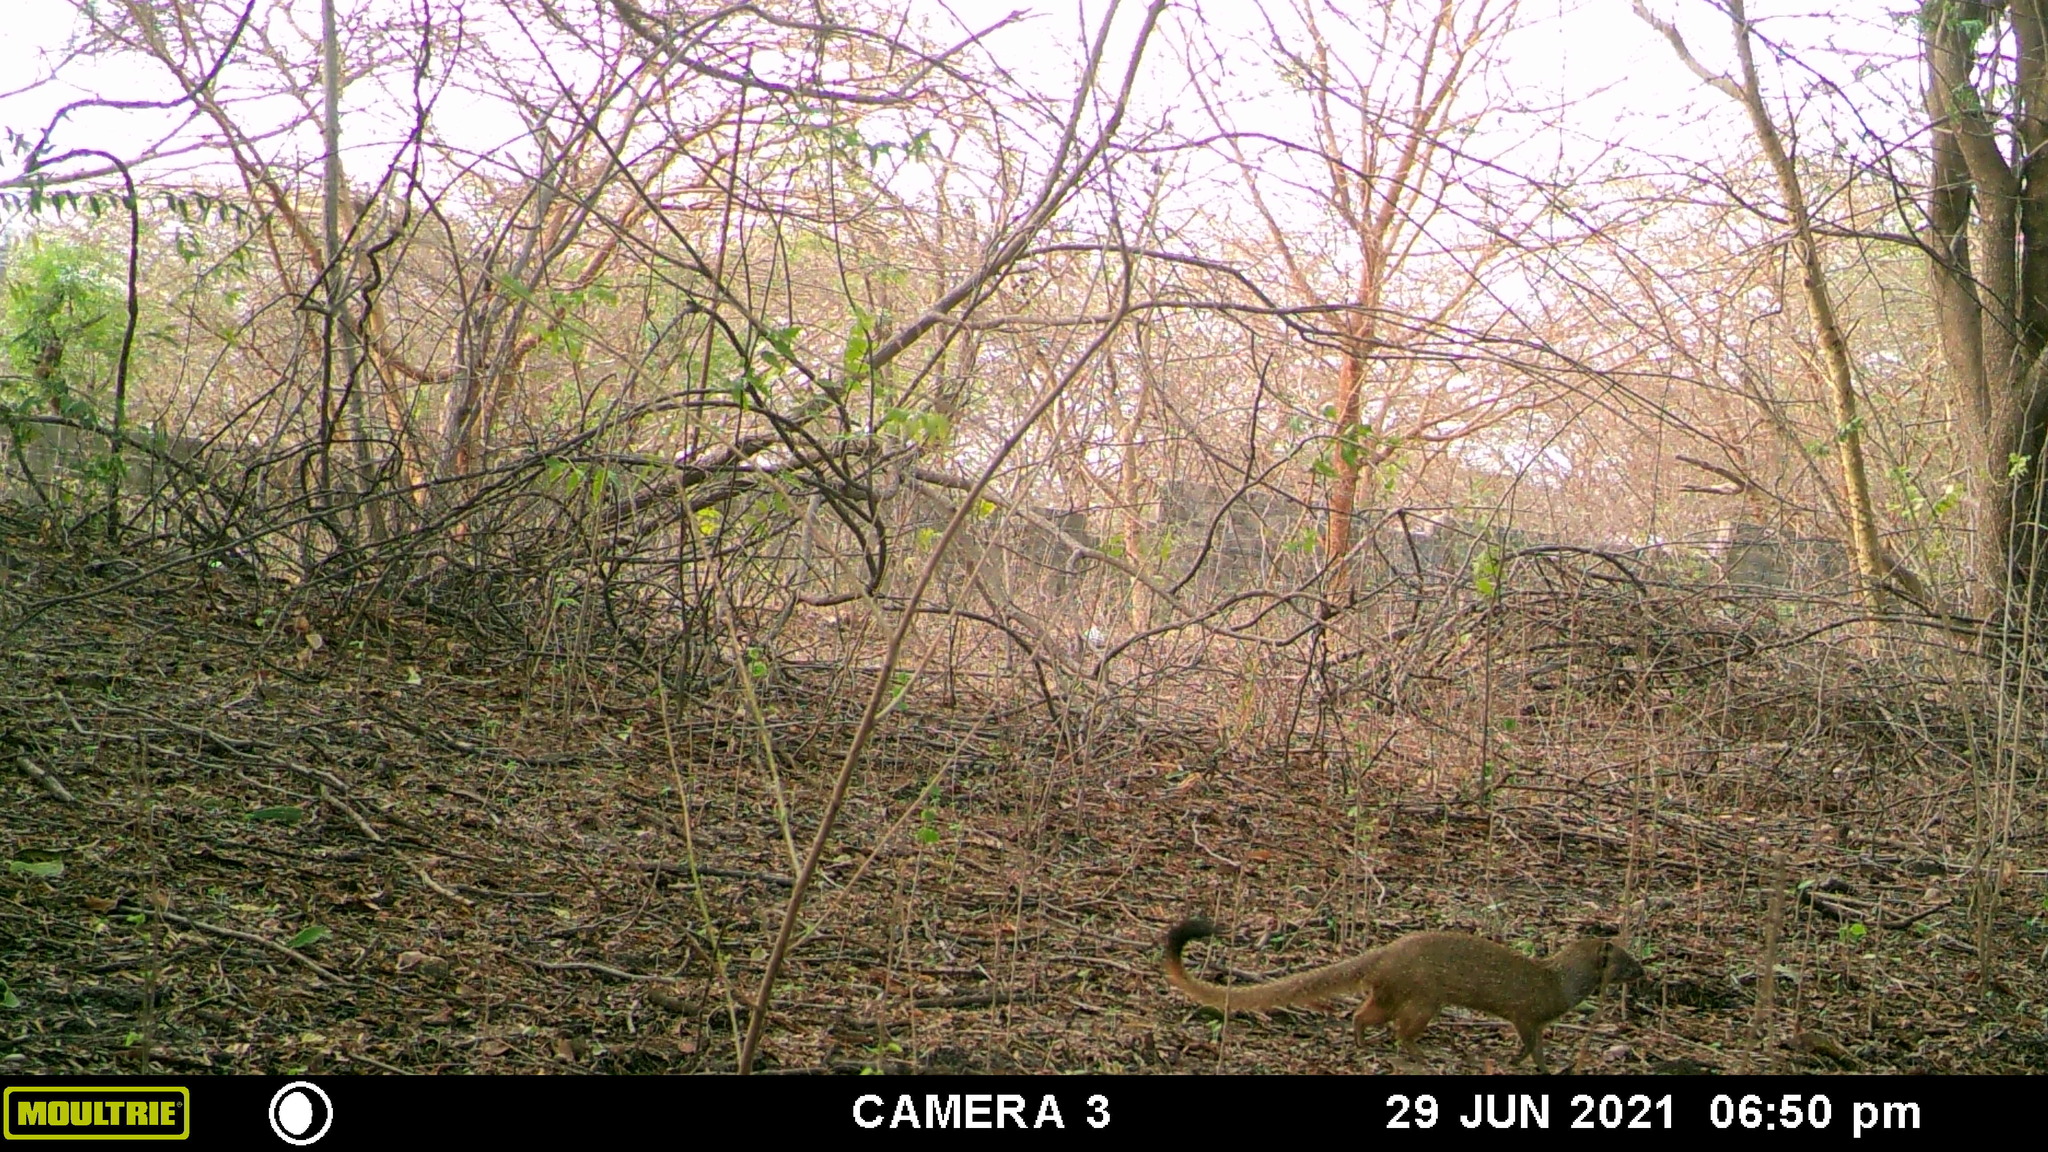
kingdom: Animalia
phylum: Chordata
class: Mammalia
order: Carnivora
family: Herpestidae
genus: Galerella
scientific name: Galerella sanguinea
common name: Slender mongoose
